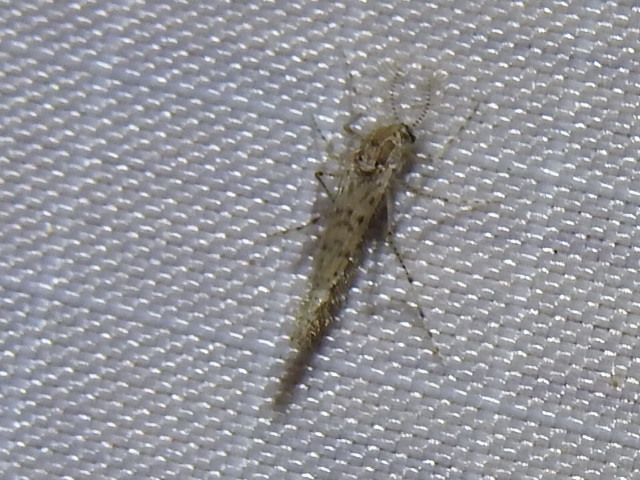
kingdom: Animalia
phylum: Arthropoda
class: Insecta
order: Diptera
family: Chaoboridae
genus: Chaoborus
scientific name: Chaoborus punctipennis
